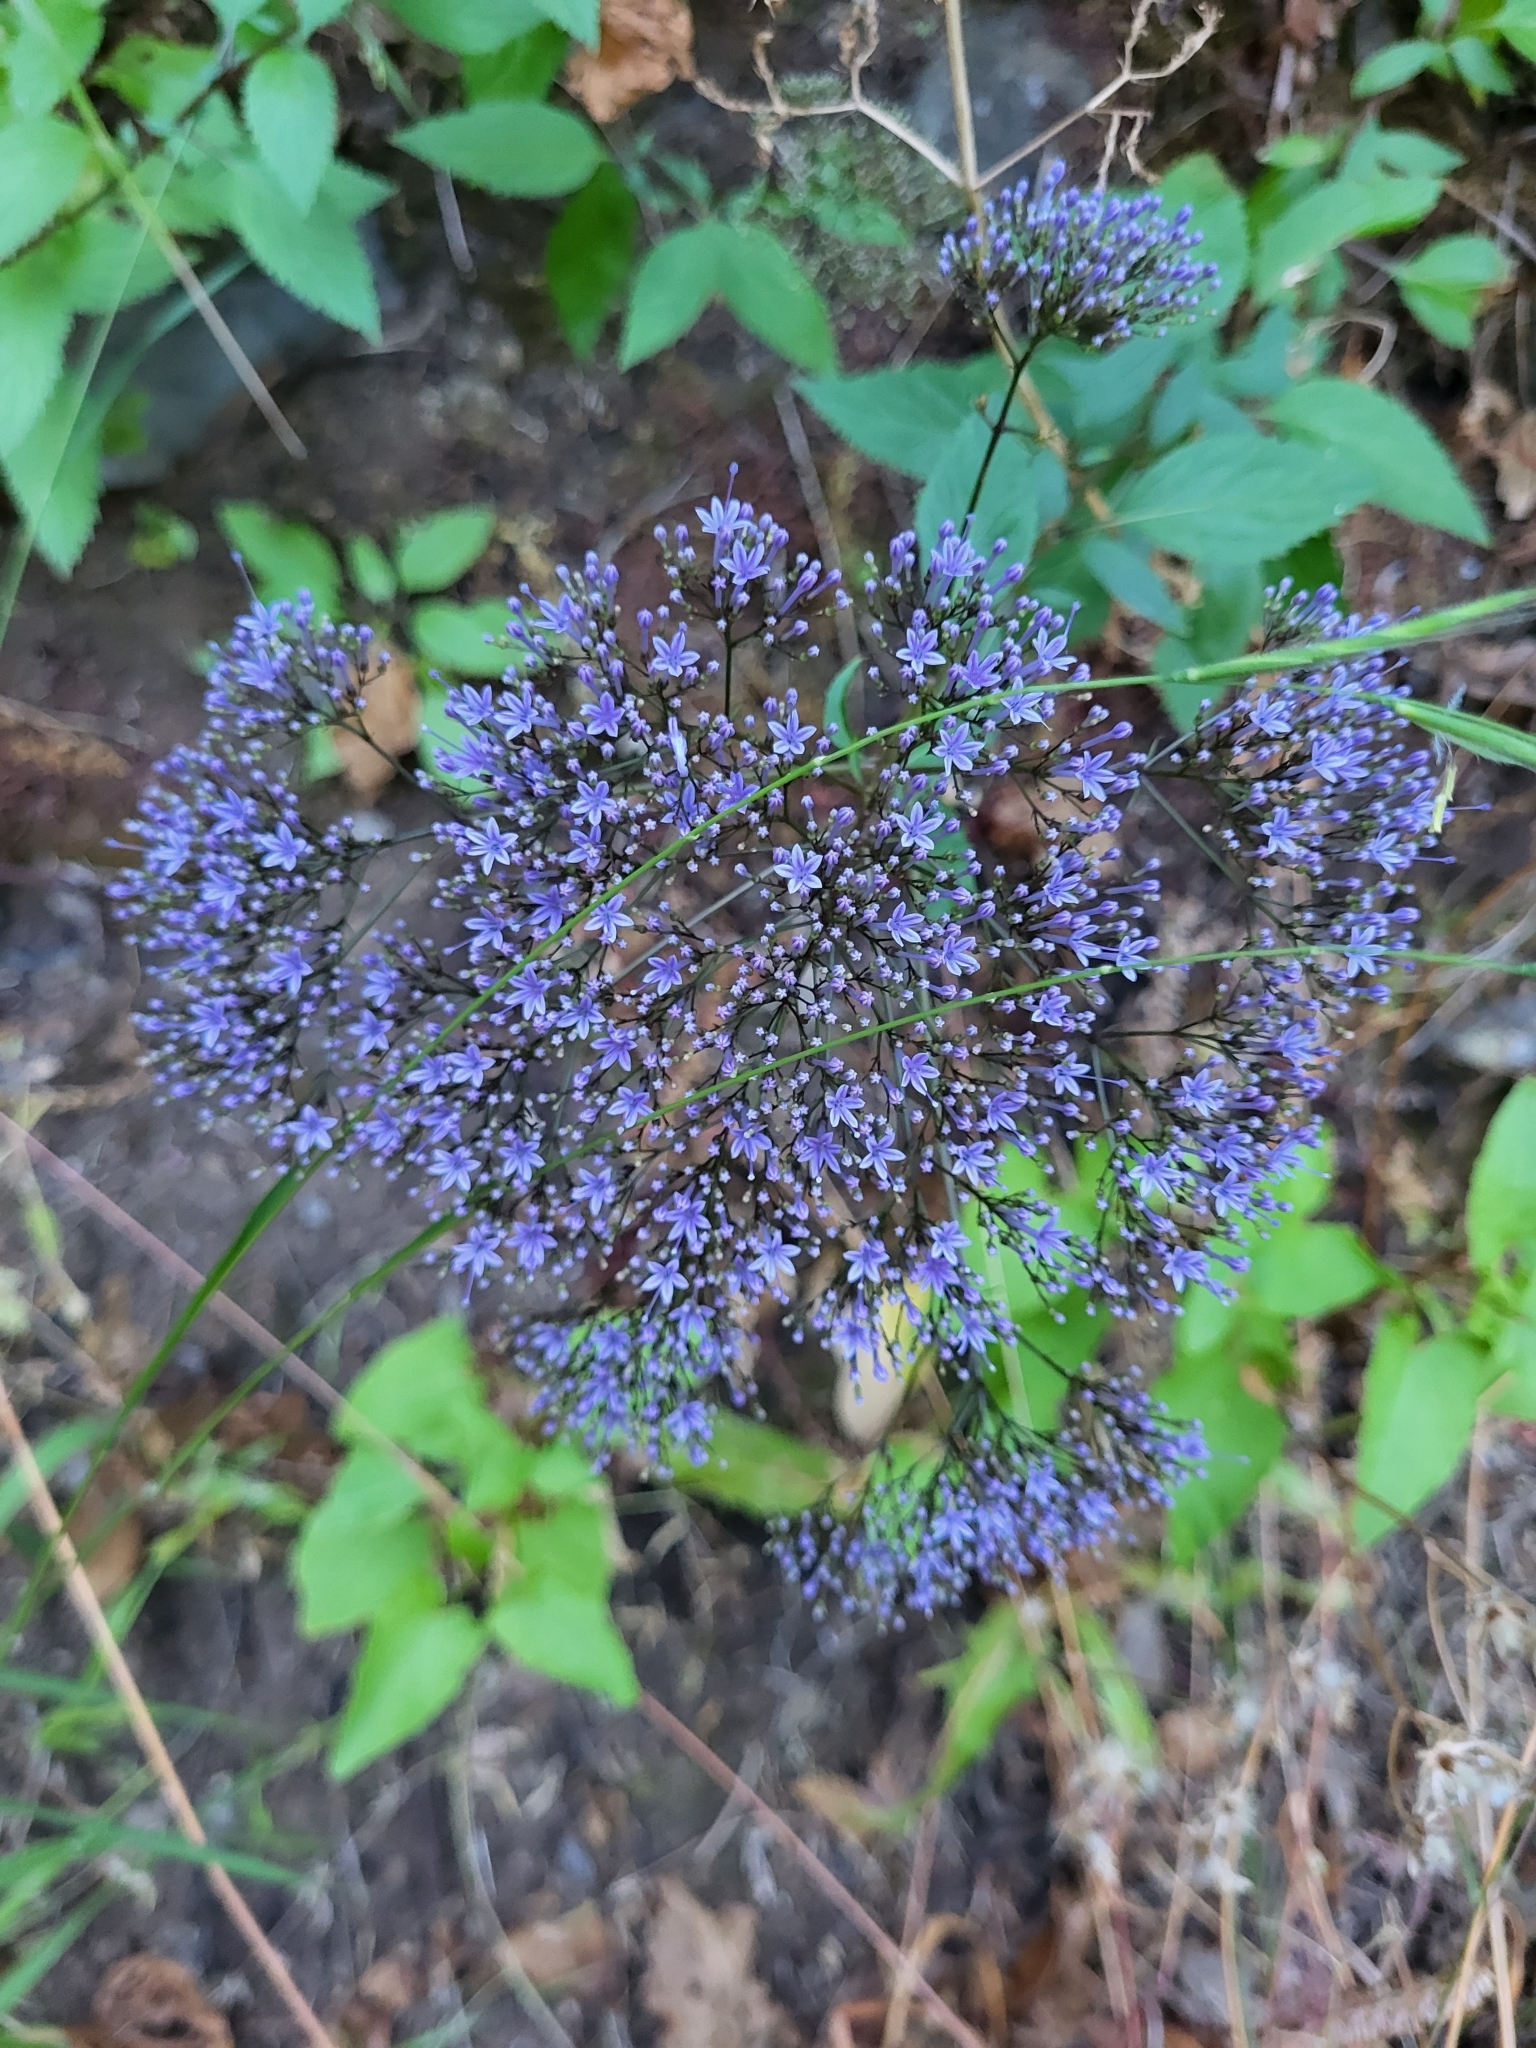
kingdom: Plantae
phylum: Tracheophyta
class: Magnoliopsida
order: Asterales
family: Campanulaceae
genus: Trachelium
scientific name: Trachelium caeruleum
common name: Throatwort
